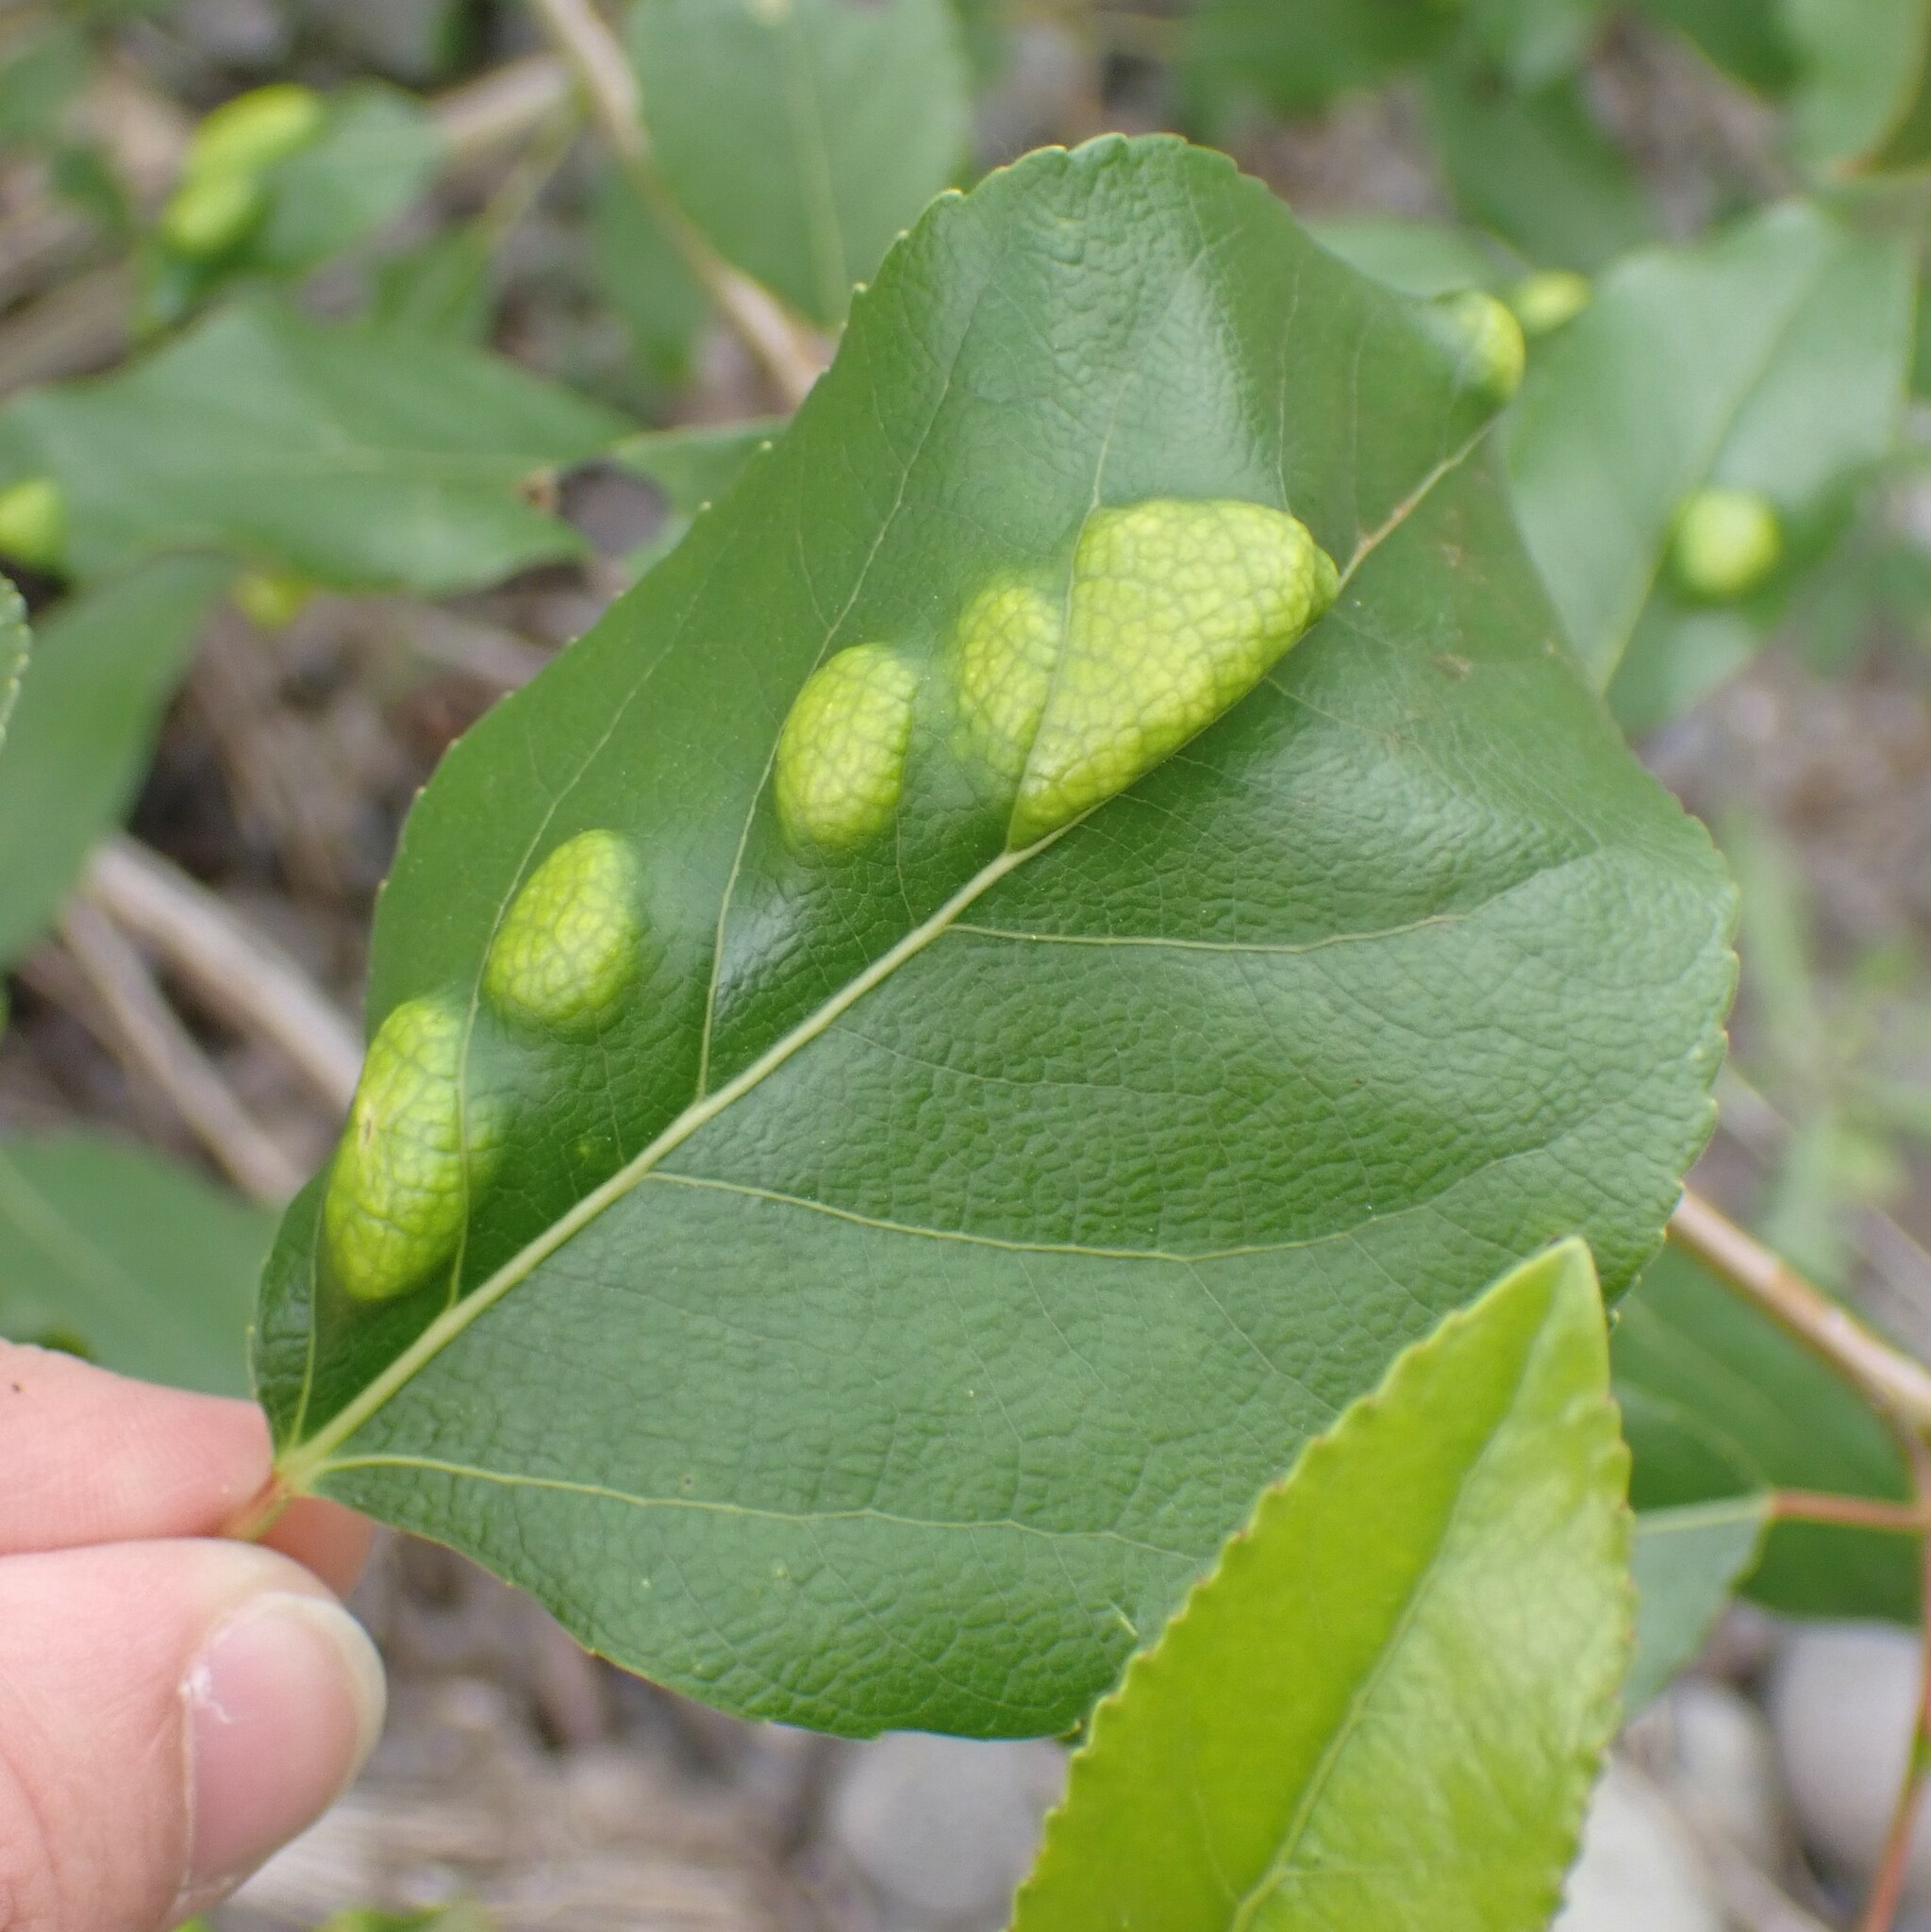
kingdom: Fungi
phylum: Ascomycota
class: Taphrinomycetes
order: Taphrinales
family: Taphrinaceae
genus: Taphrina
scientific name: Taphrina populi-salicis
